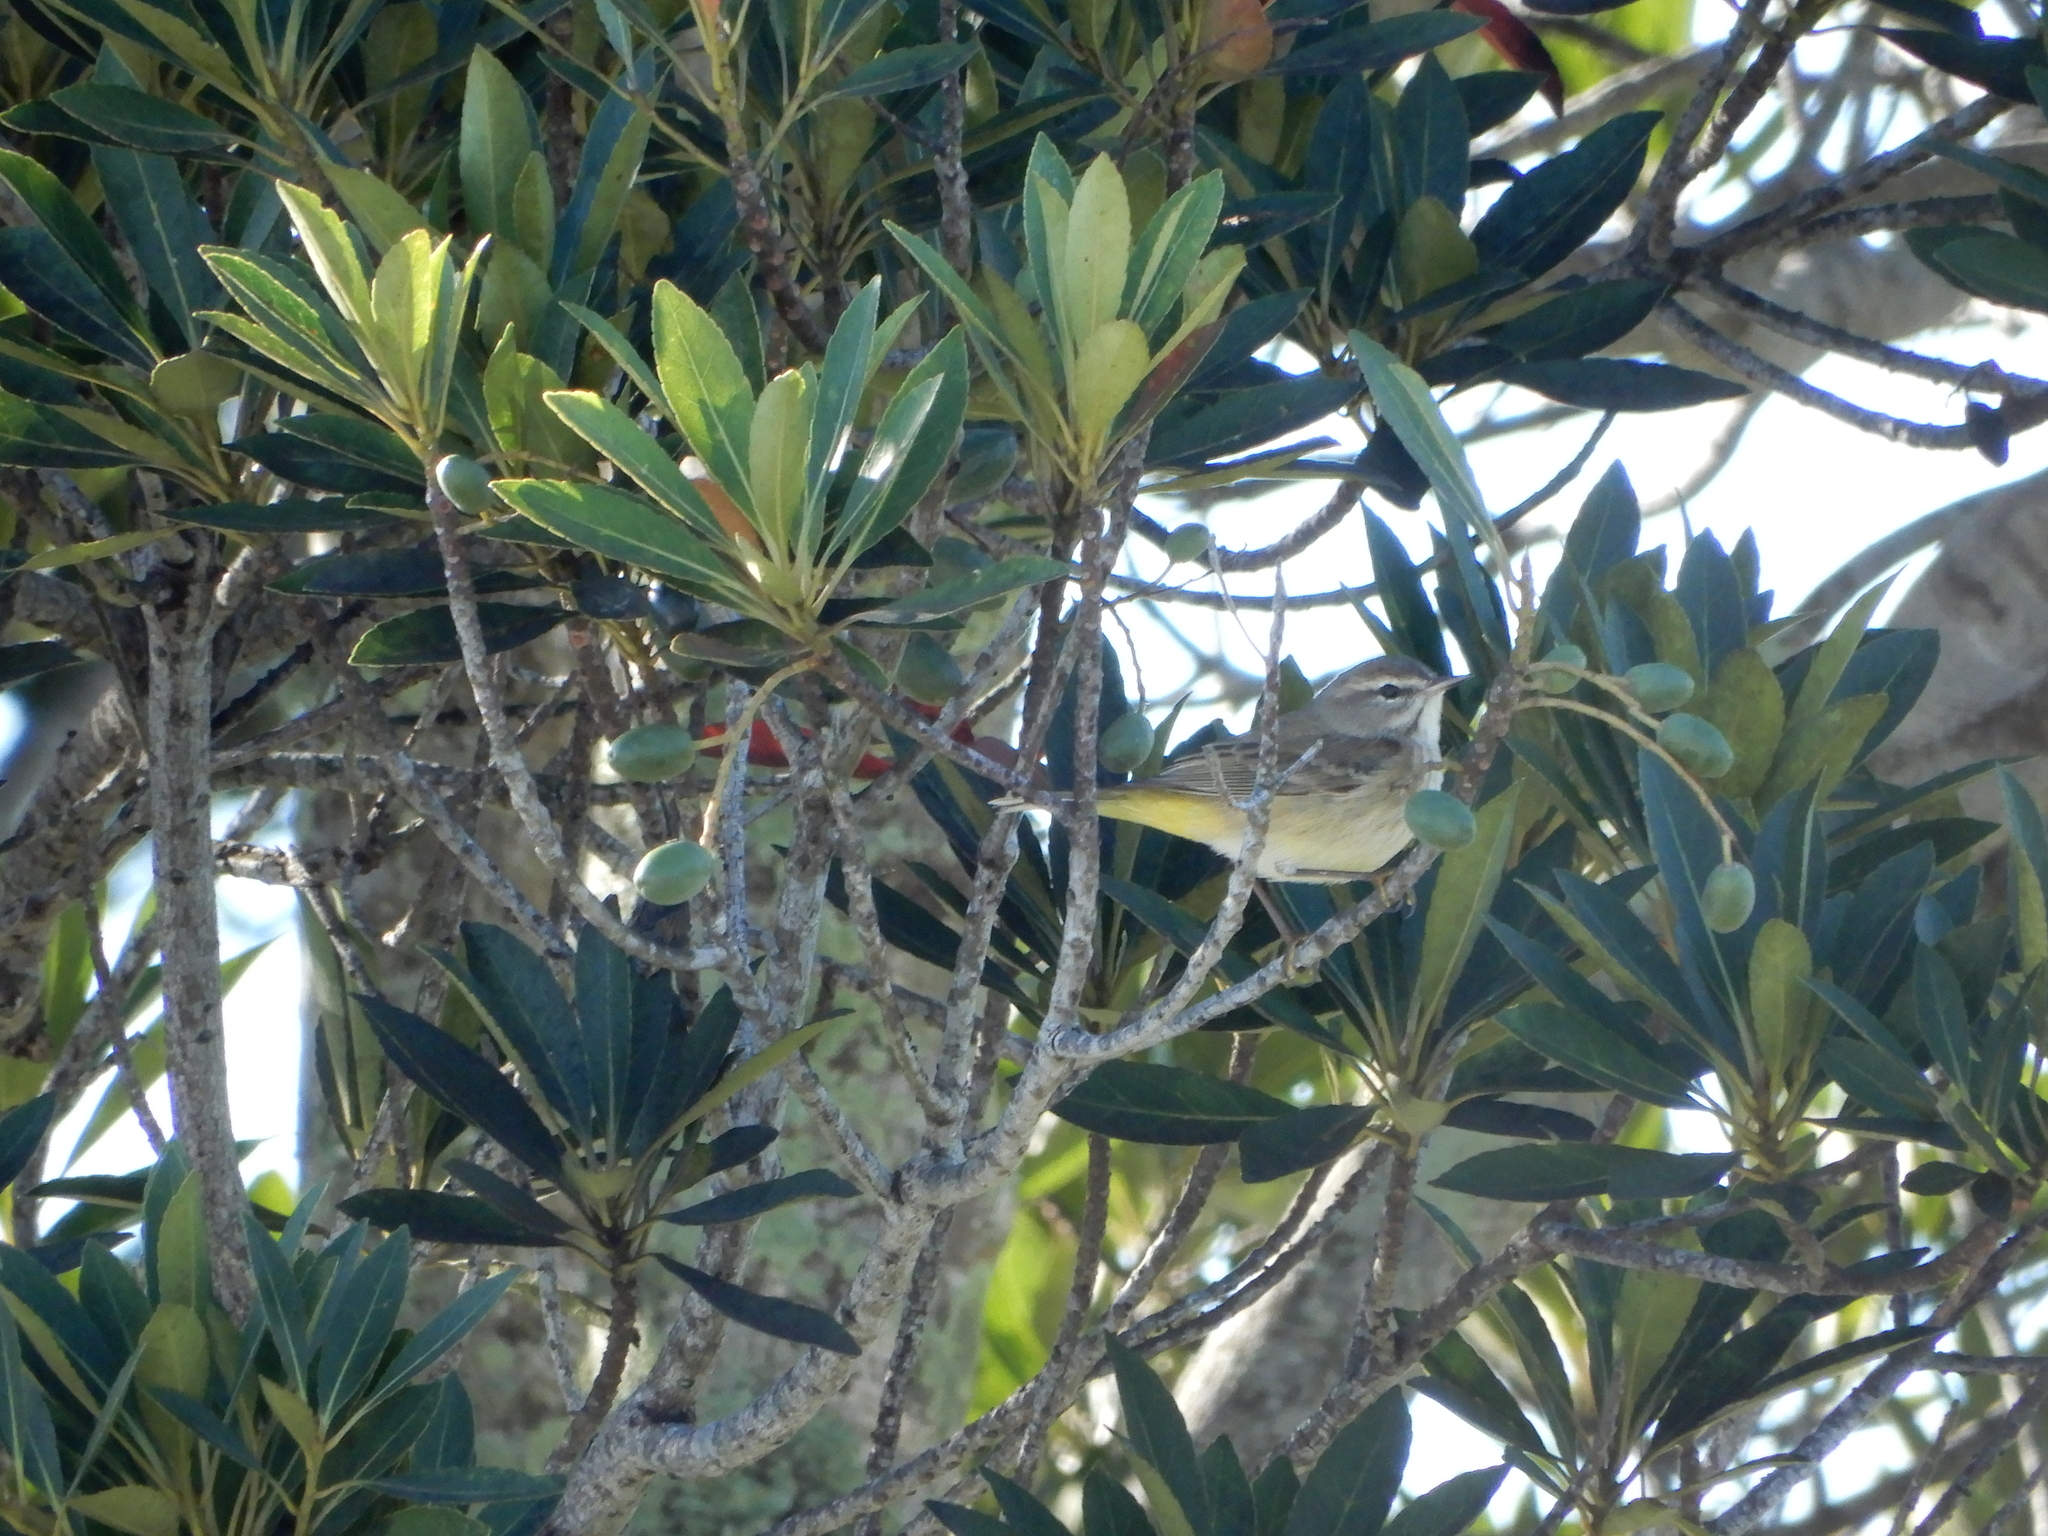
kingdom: Animalia
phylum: Chordata
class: Aves
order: Passeriformes
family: Parulidae
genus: Setophaga
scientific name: Setophaga palmarum
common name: Palm warbler
